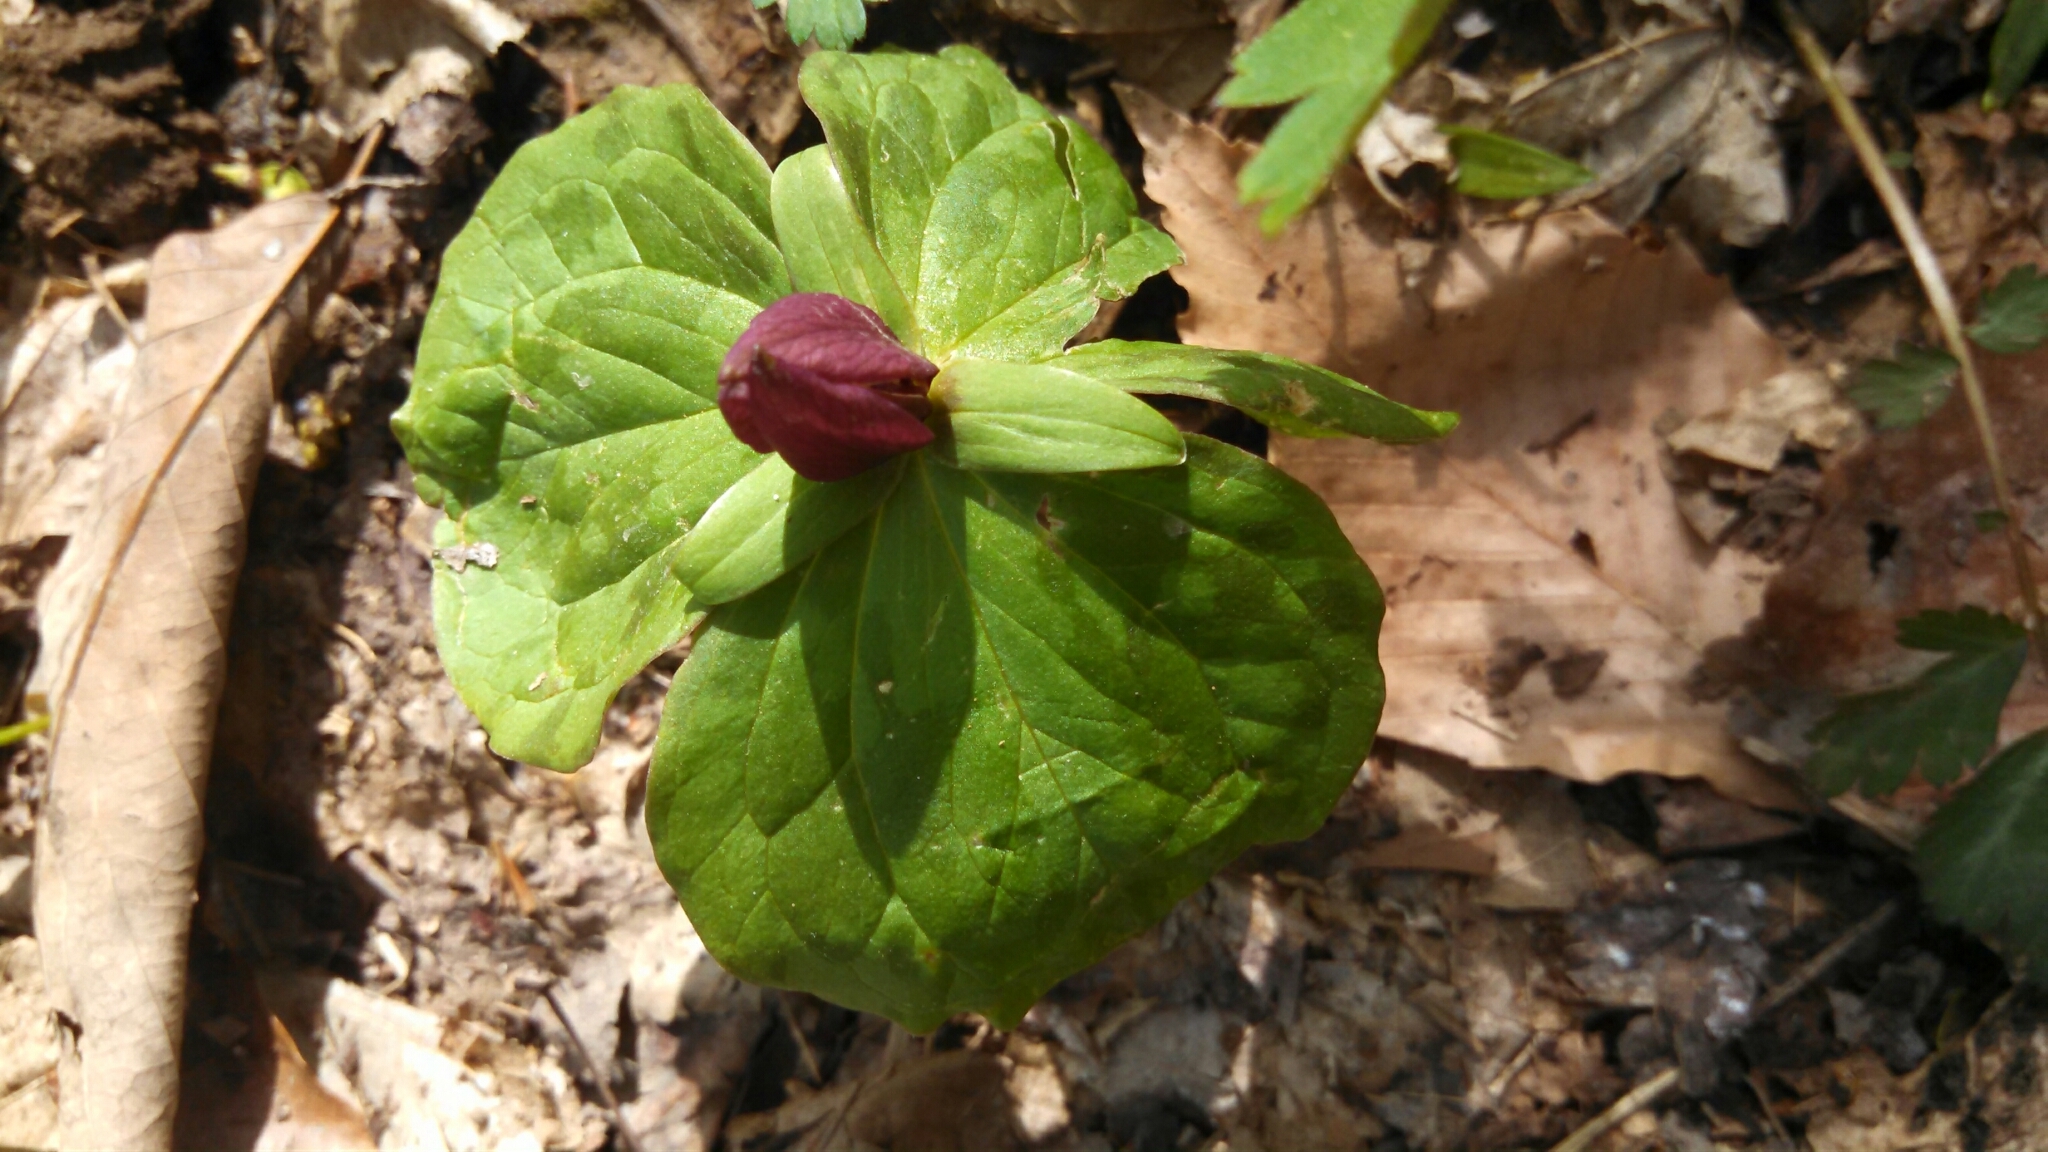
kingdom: Plantae
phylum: Tracheophyta
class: Liliopsida
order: Liliales
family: Melanthiaceae
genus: Trillium
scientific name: Trillium sessile
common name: Sessile trillium
